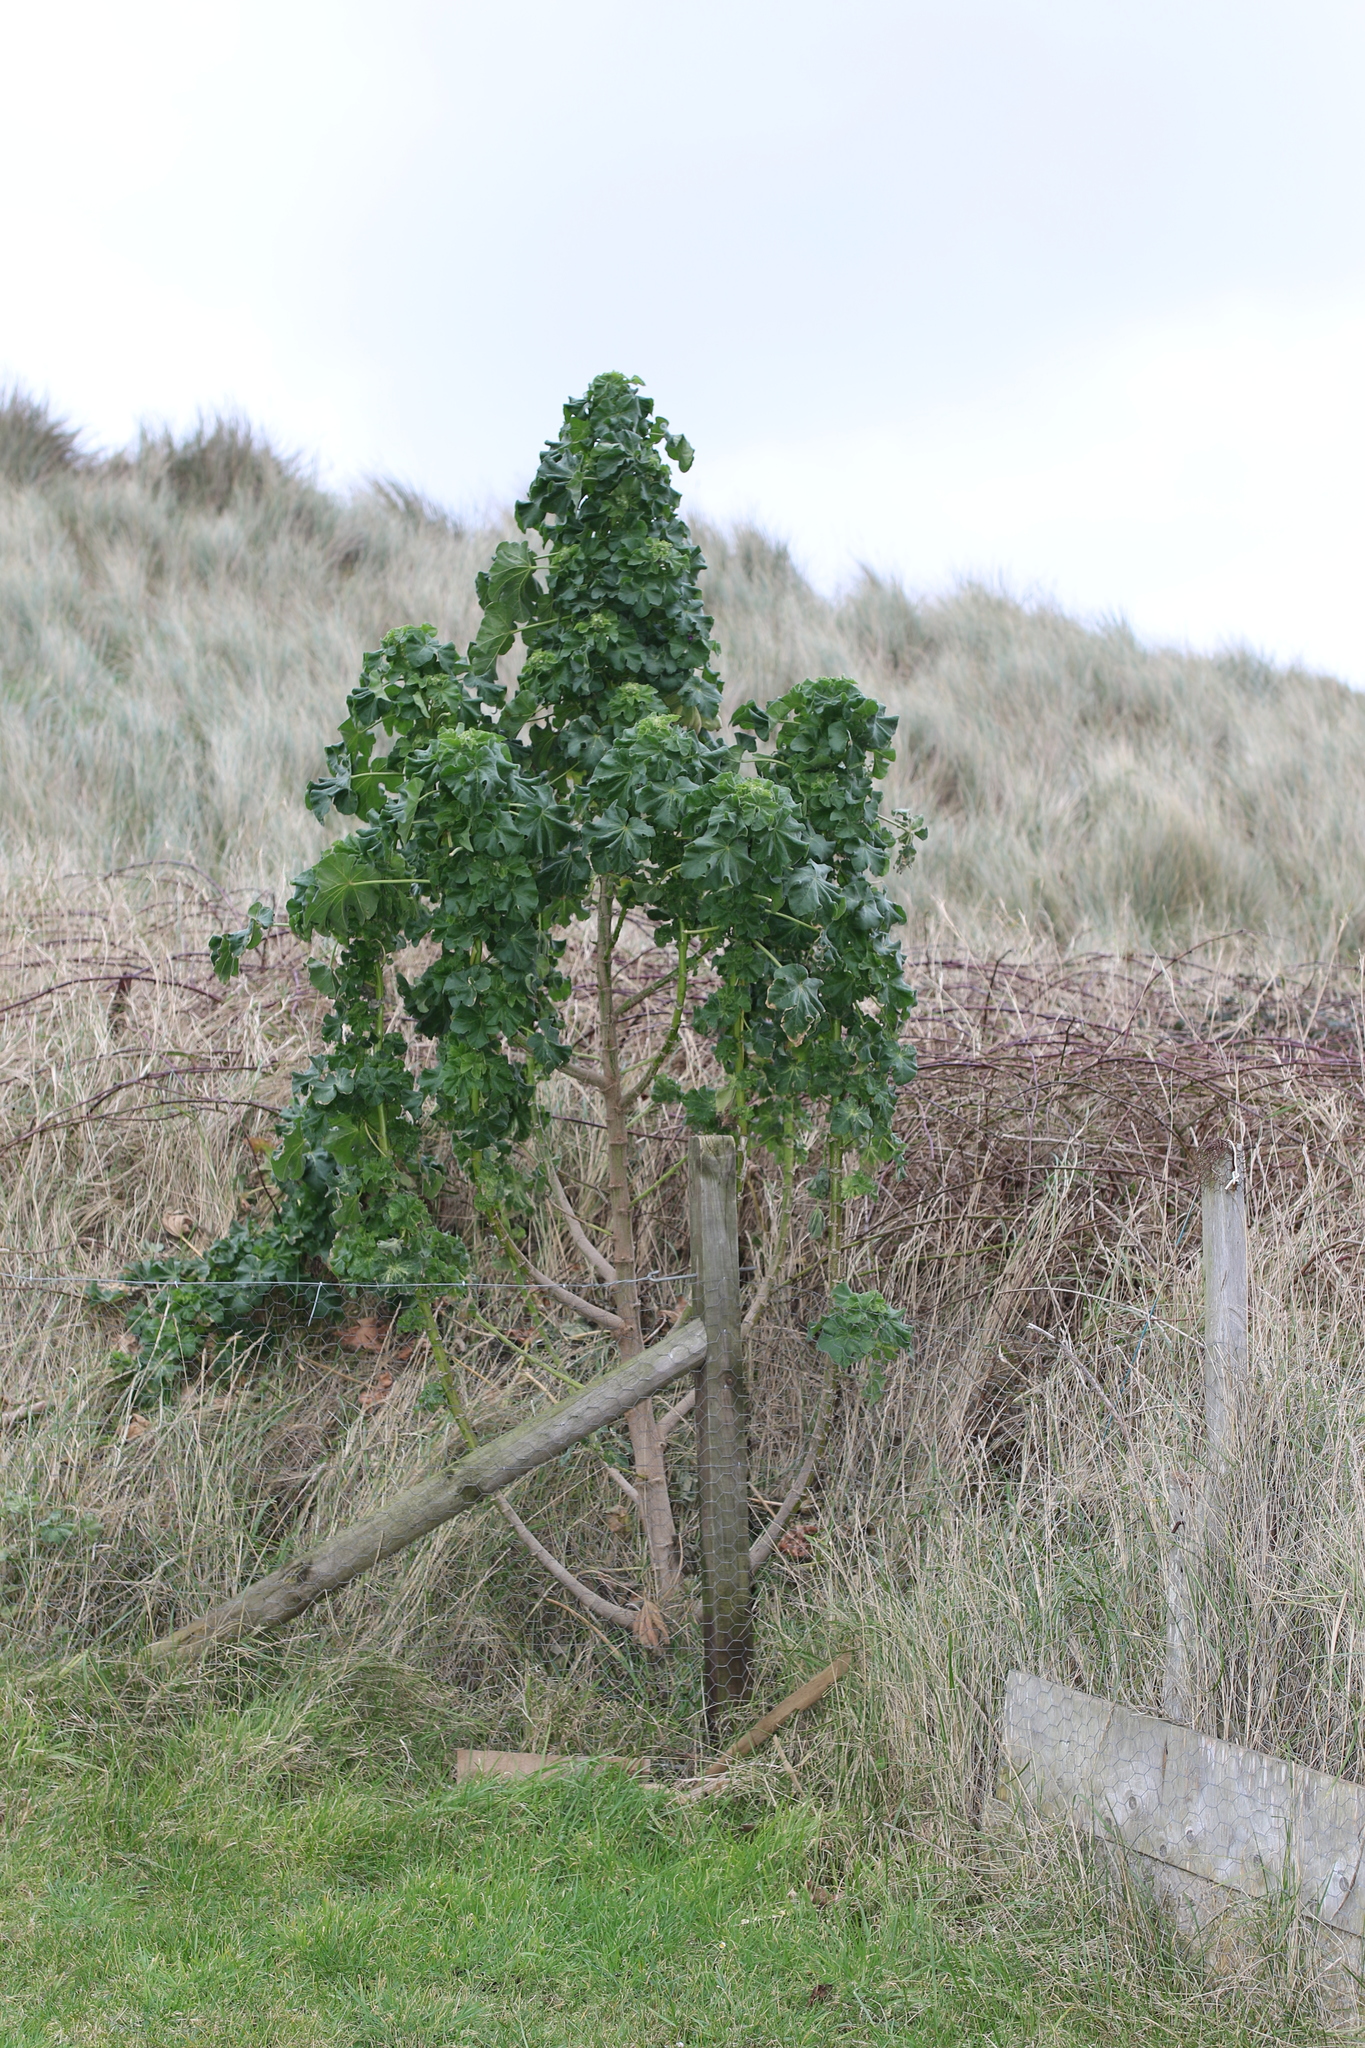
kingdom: Plantae
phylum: Tracheophyta
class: Magnoliopsida
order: Malvales
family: Malvaceae
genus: Malva
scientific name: Malva arborea
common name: Tree mallow
